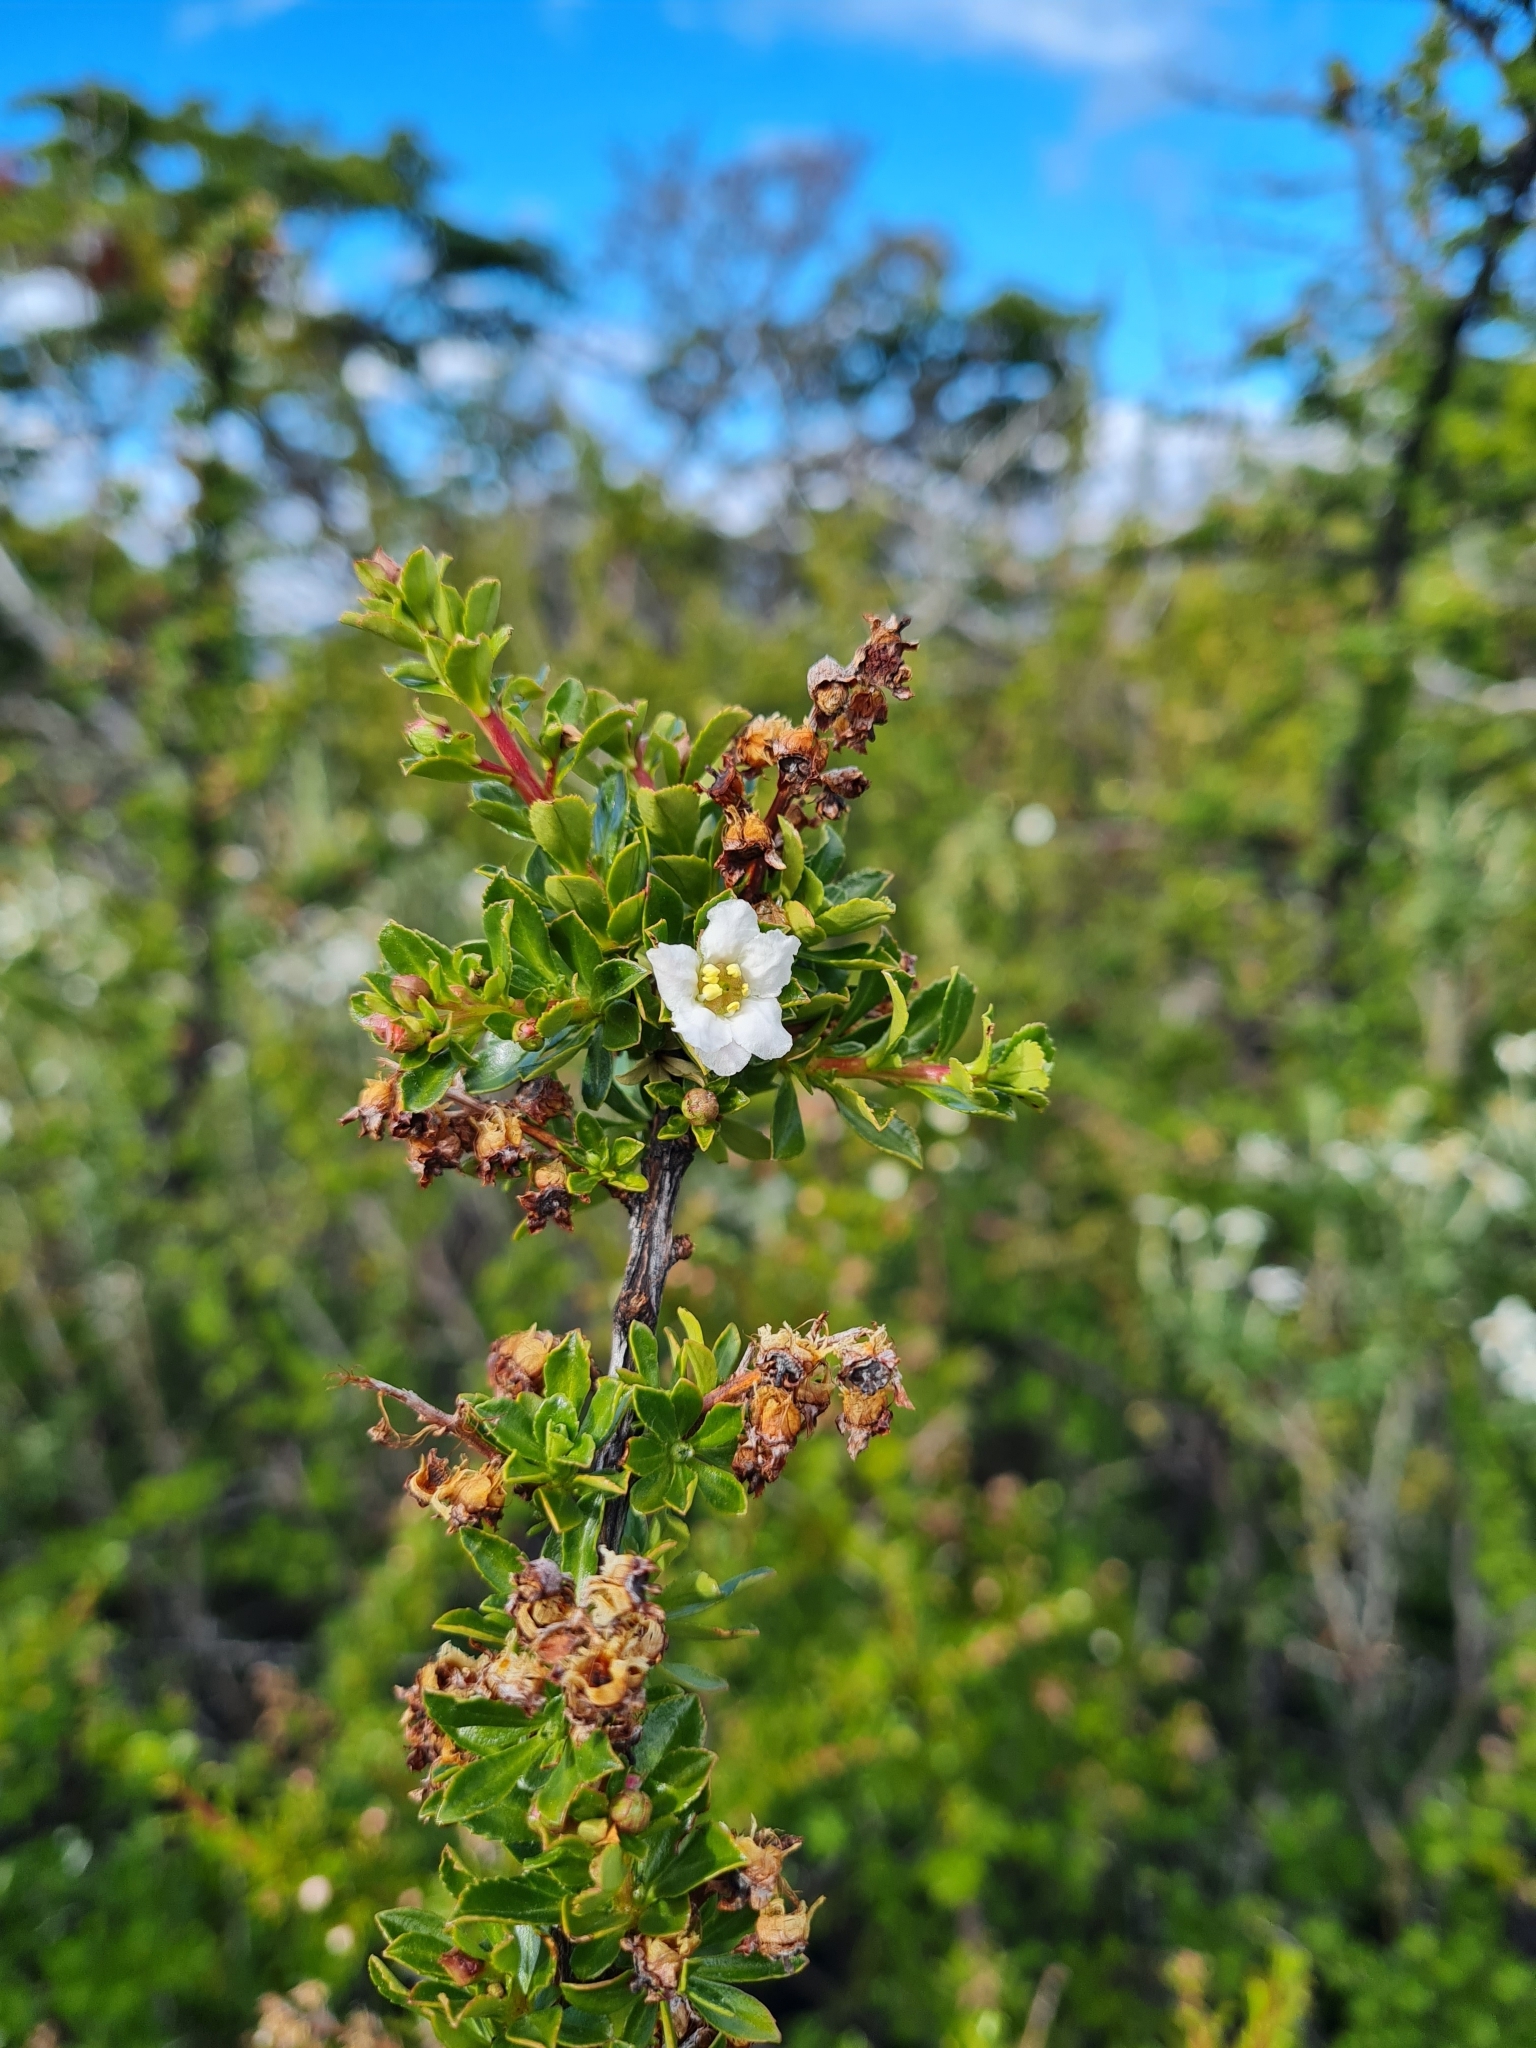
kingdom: Plantae
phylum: Tracheophyta
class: Magnoliopsida
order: Escalloniales
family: Escalloniaceae
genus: Escallonia
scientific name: Escallonia virgata
